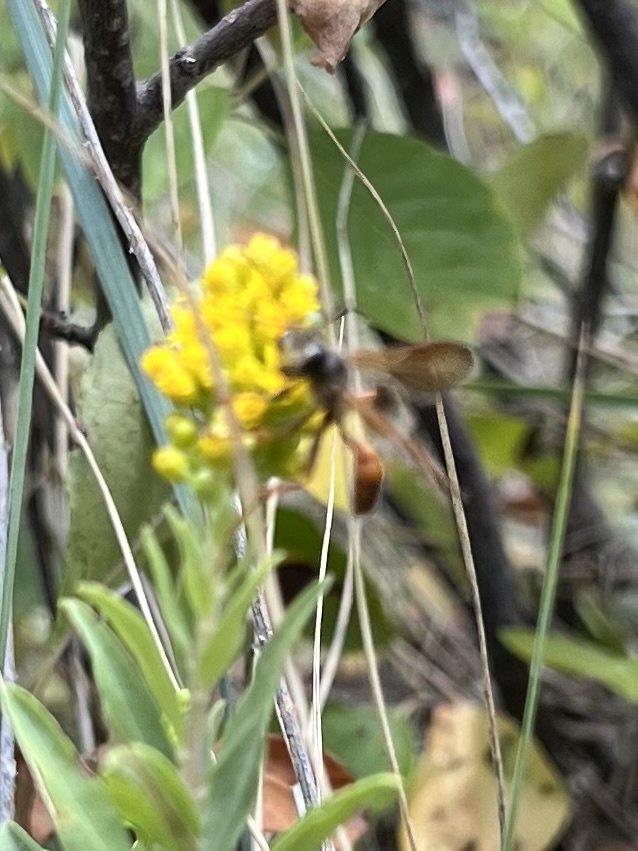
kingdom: Animalia
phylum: Arthropoda
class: Insecta
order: Hymenoptera
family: Sphecidae
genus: Isodontia
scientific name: Isodontia elegans
